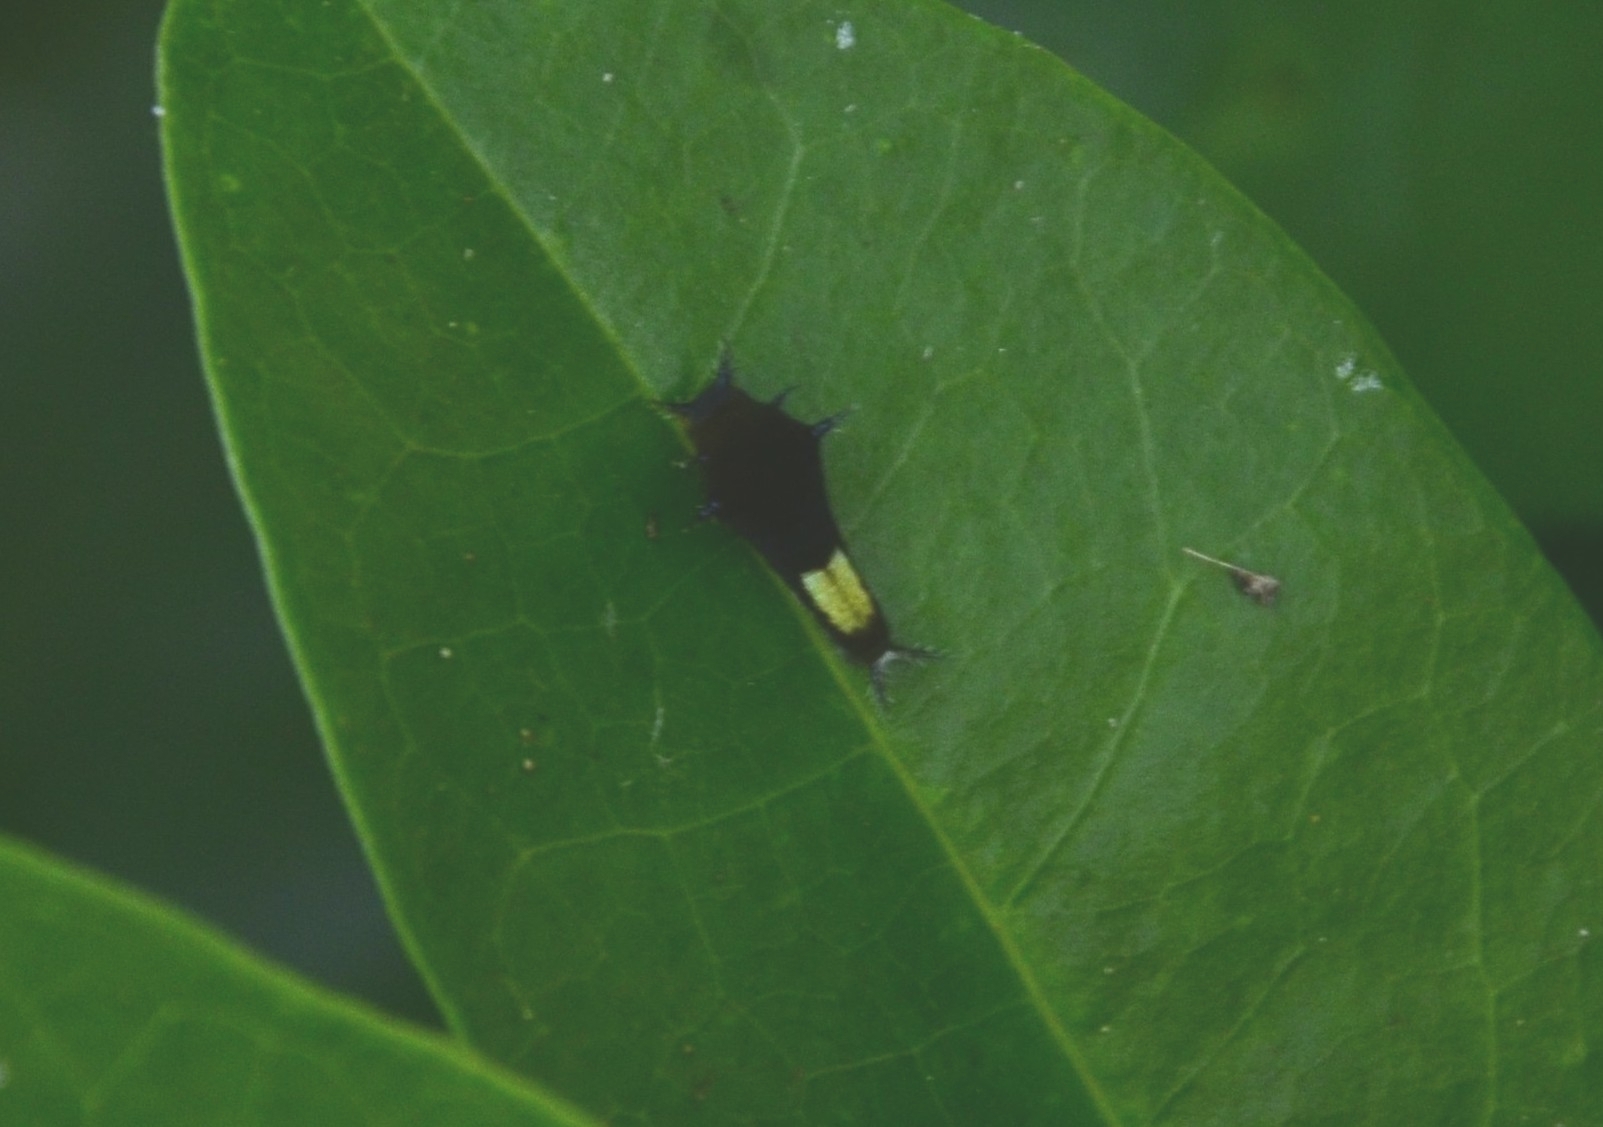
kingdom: Animalia
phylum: Arthropoda
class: Insecta
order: Lepidoptera
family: Papilionidae
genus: Graphium
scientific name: Graphium agamemnon
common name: Tailed jay
